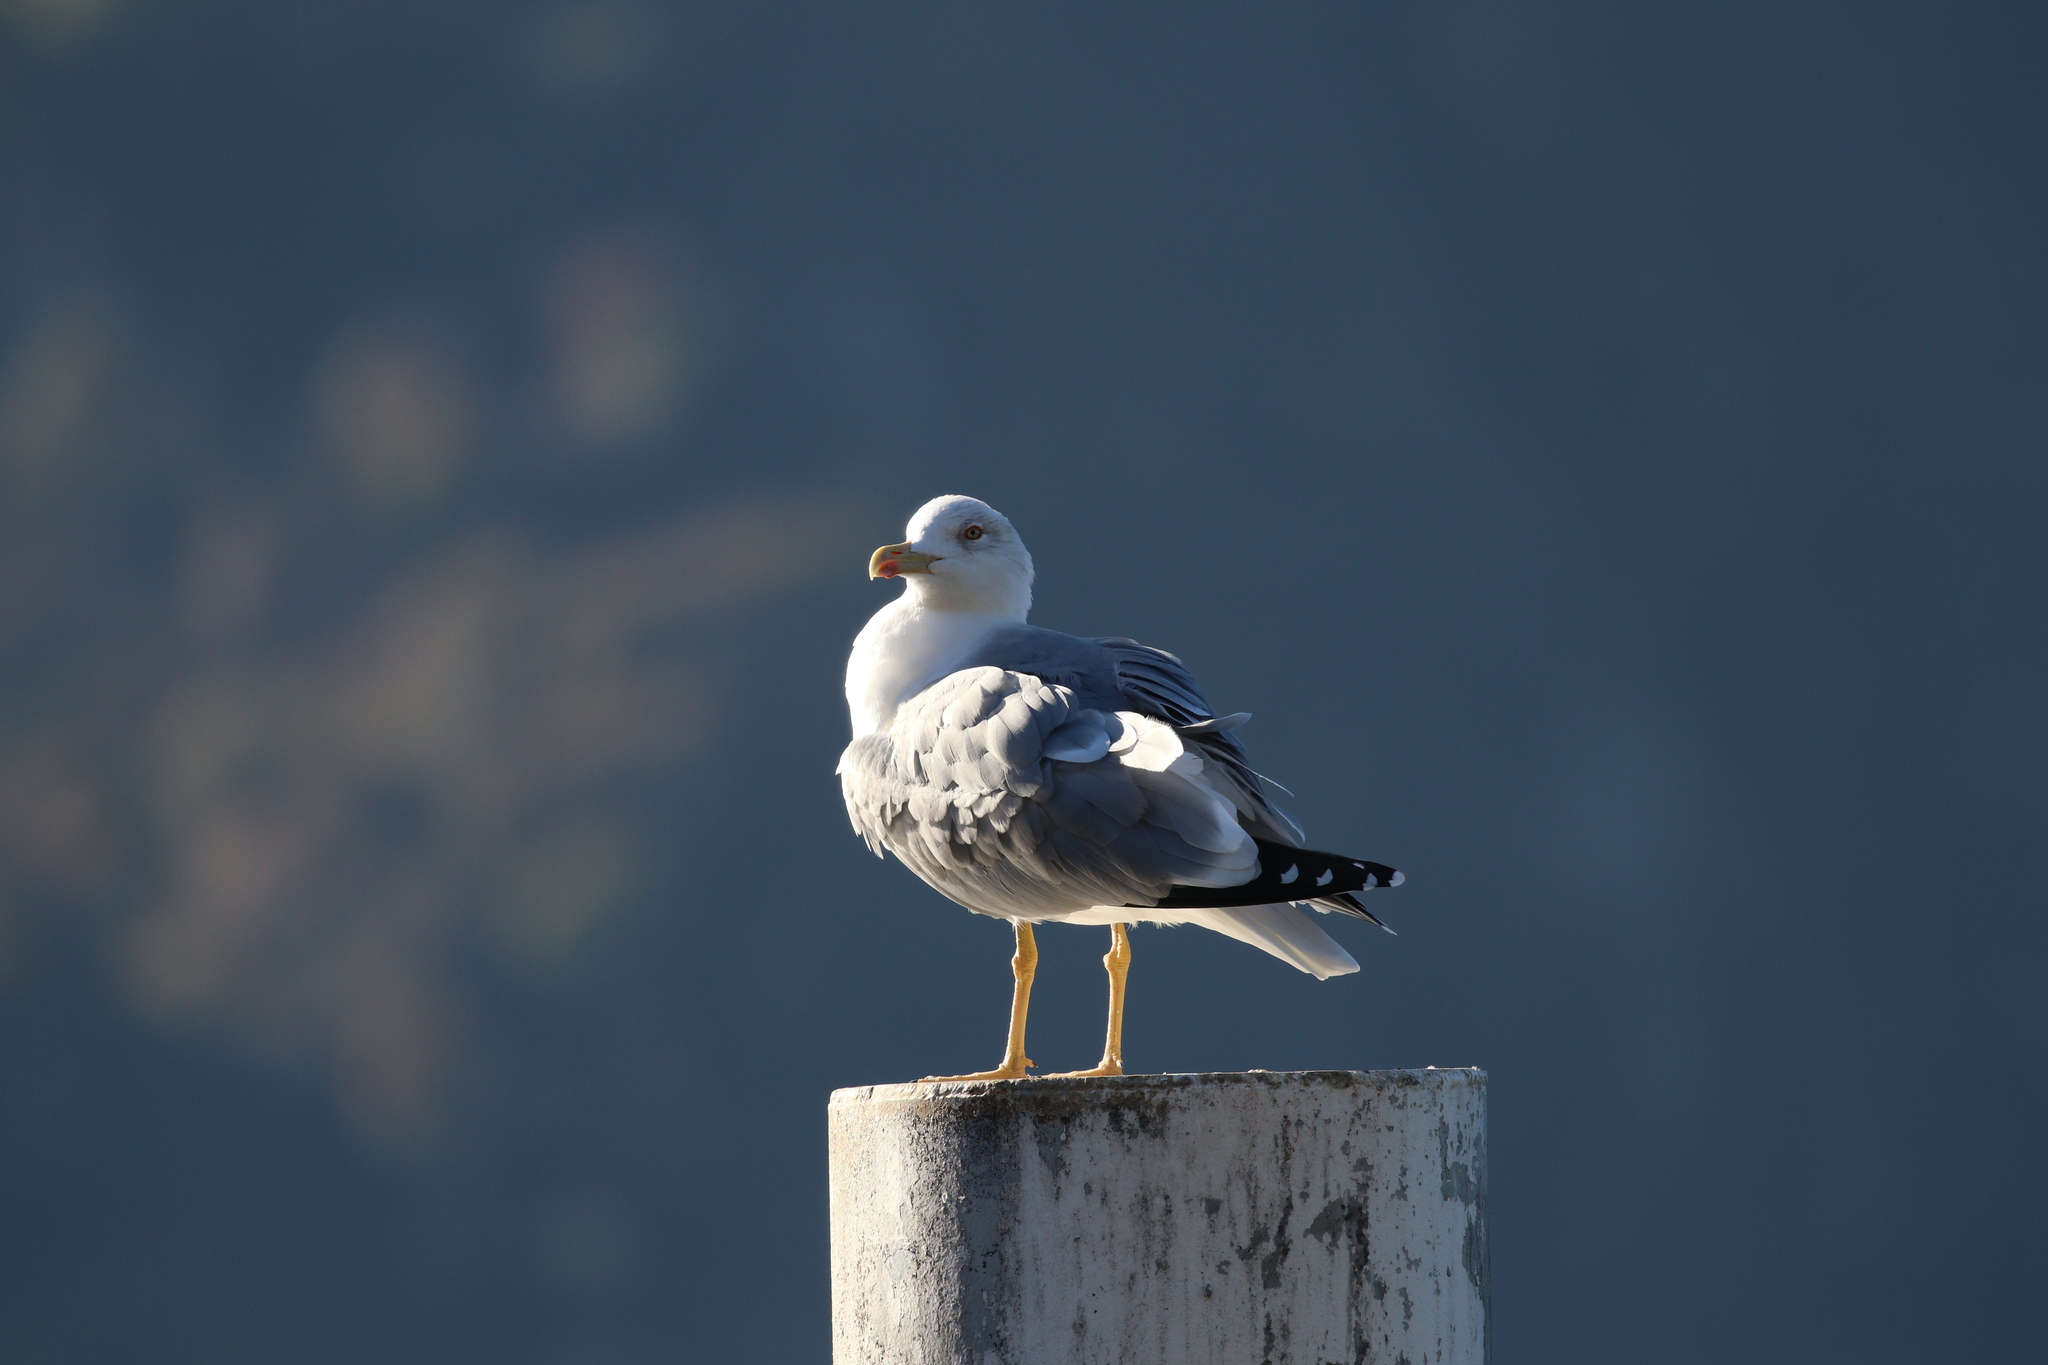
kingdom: Animalia
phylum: Chordata
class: Aves
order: Charadriiformes
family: Laridae
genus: Larus
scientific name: Larus michahellis
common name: Yellow-legged gull
